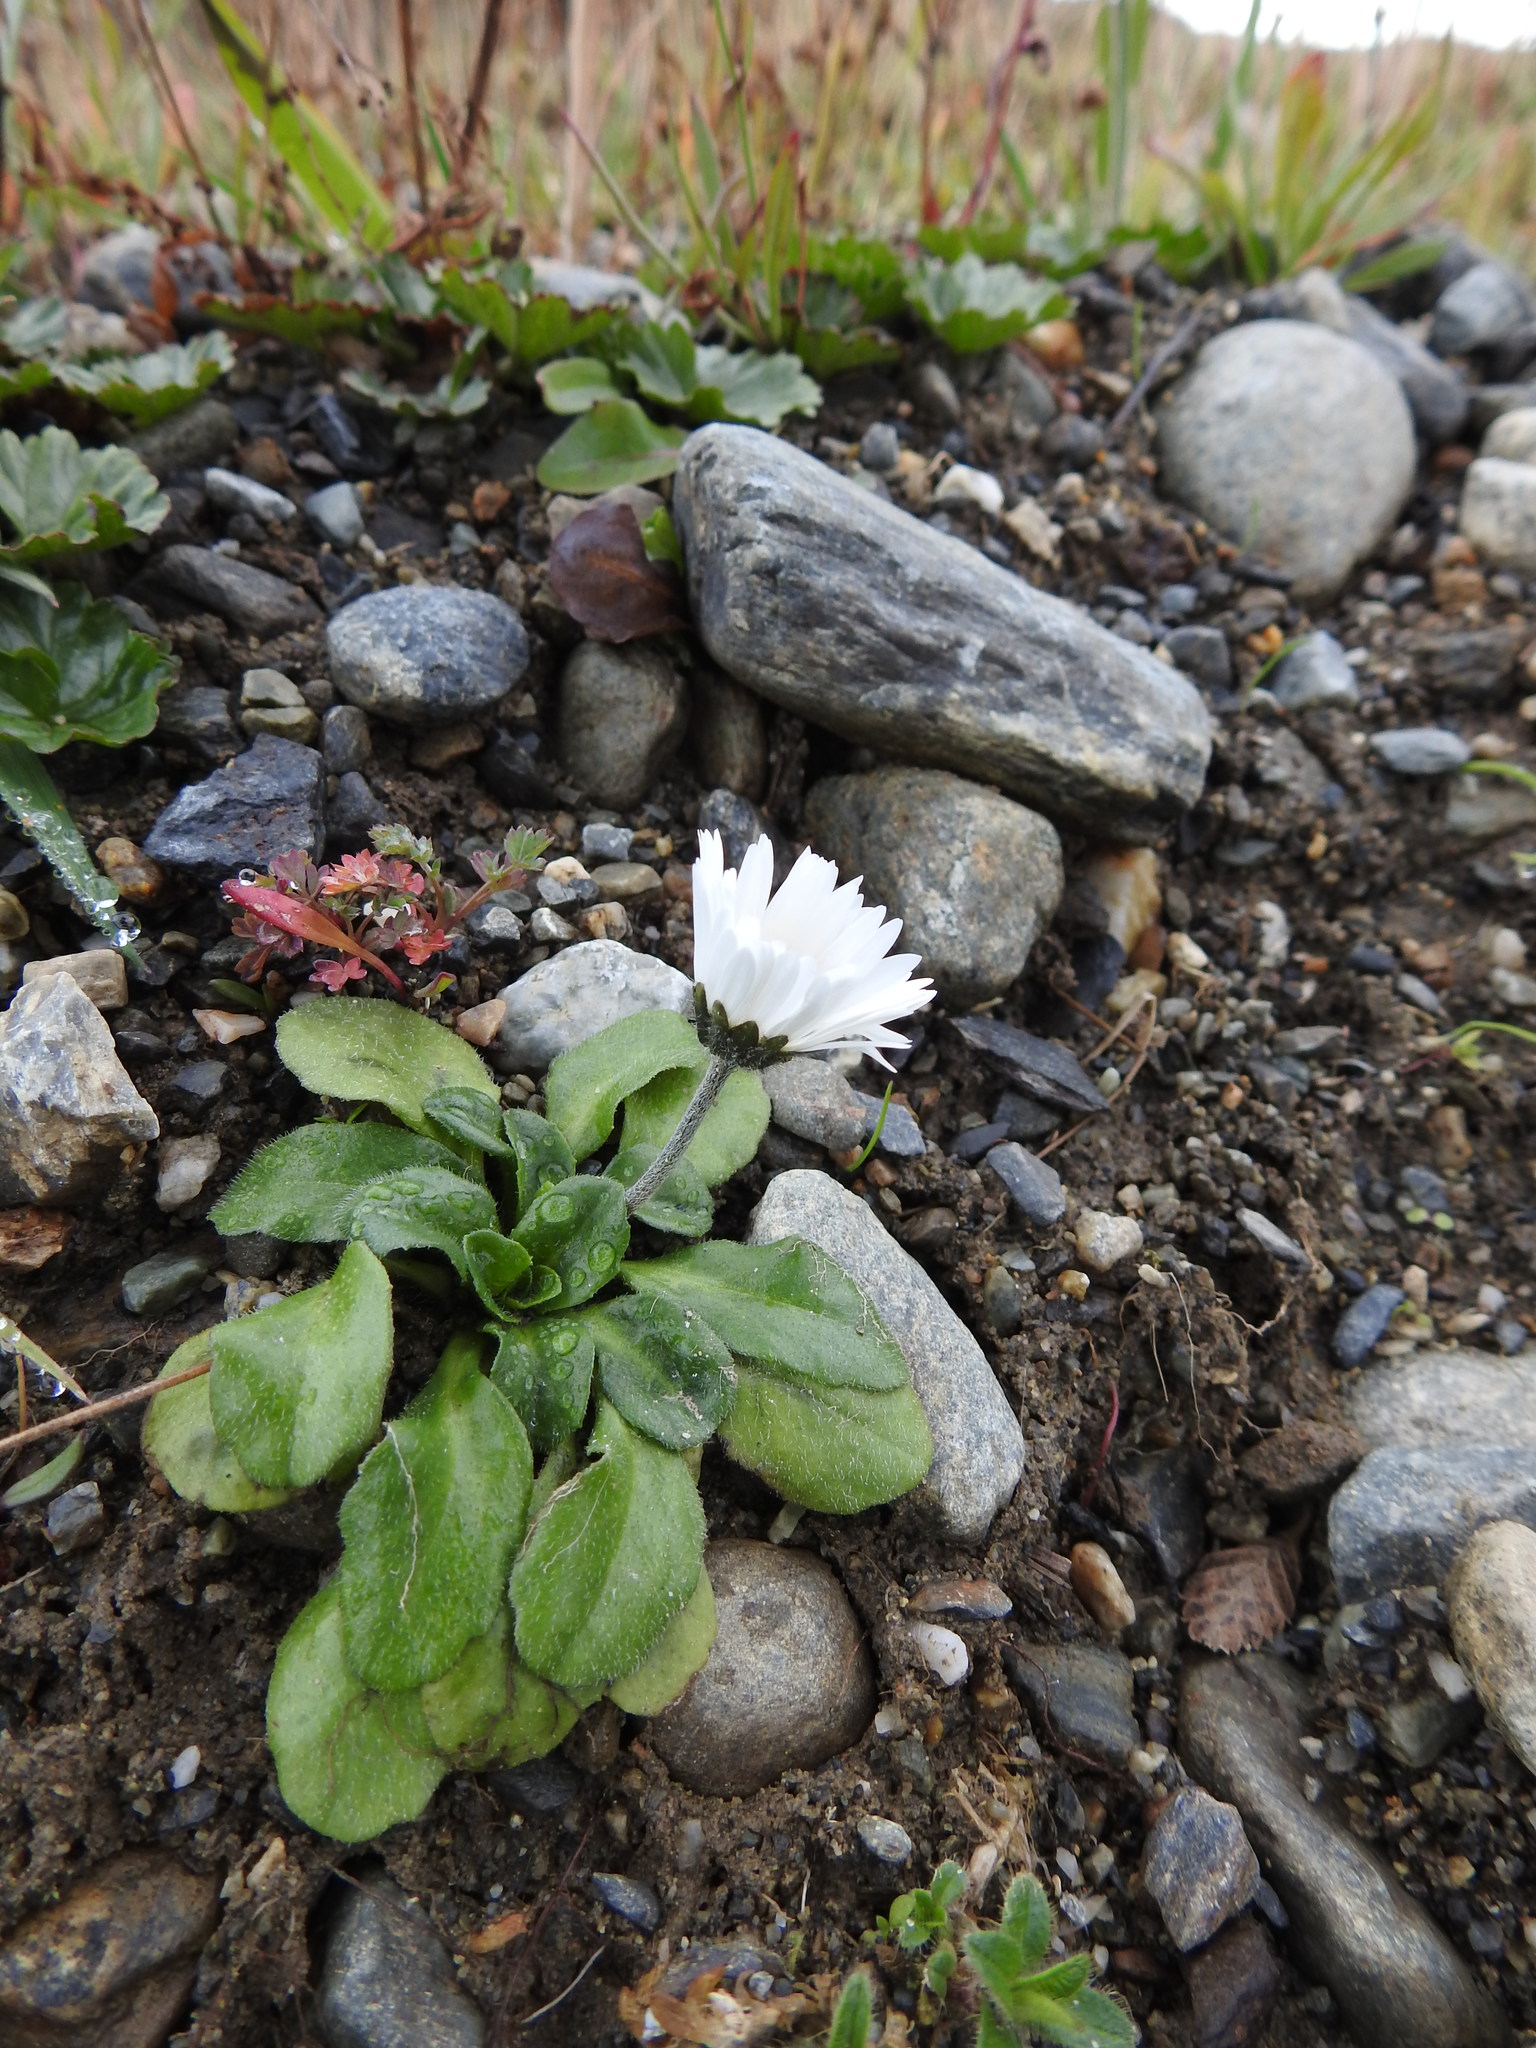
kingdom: Plantae
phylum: Tracheophyta
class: Magnoliopsida
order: Asterales
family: Asteraceae
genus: Bellis
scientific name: Bellis perennis
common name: Lawndaisy
